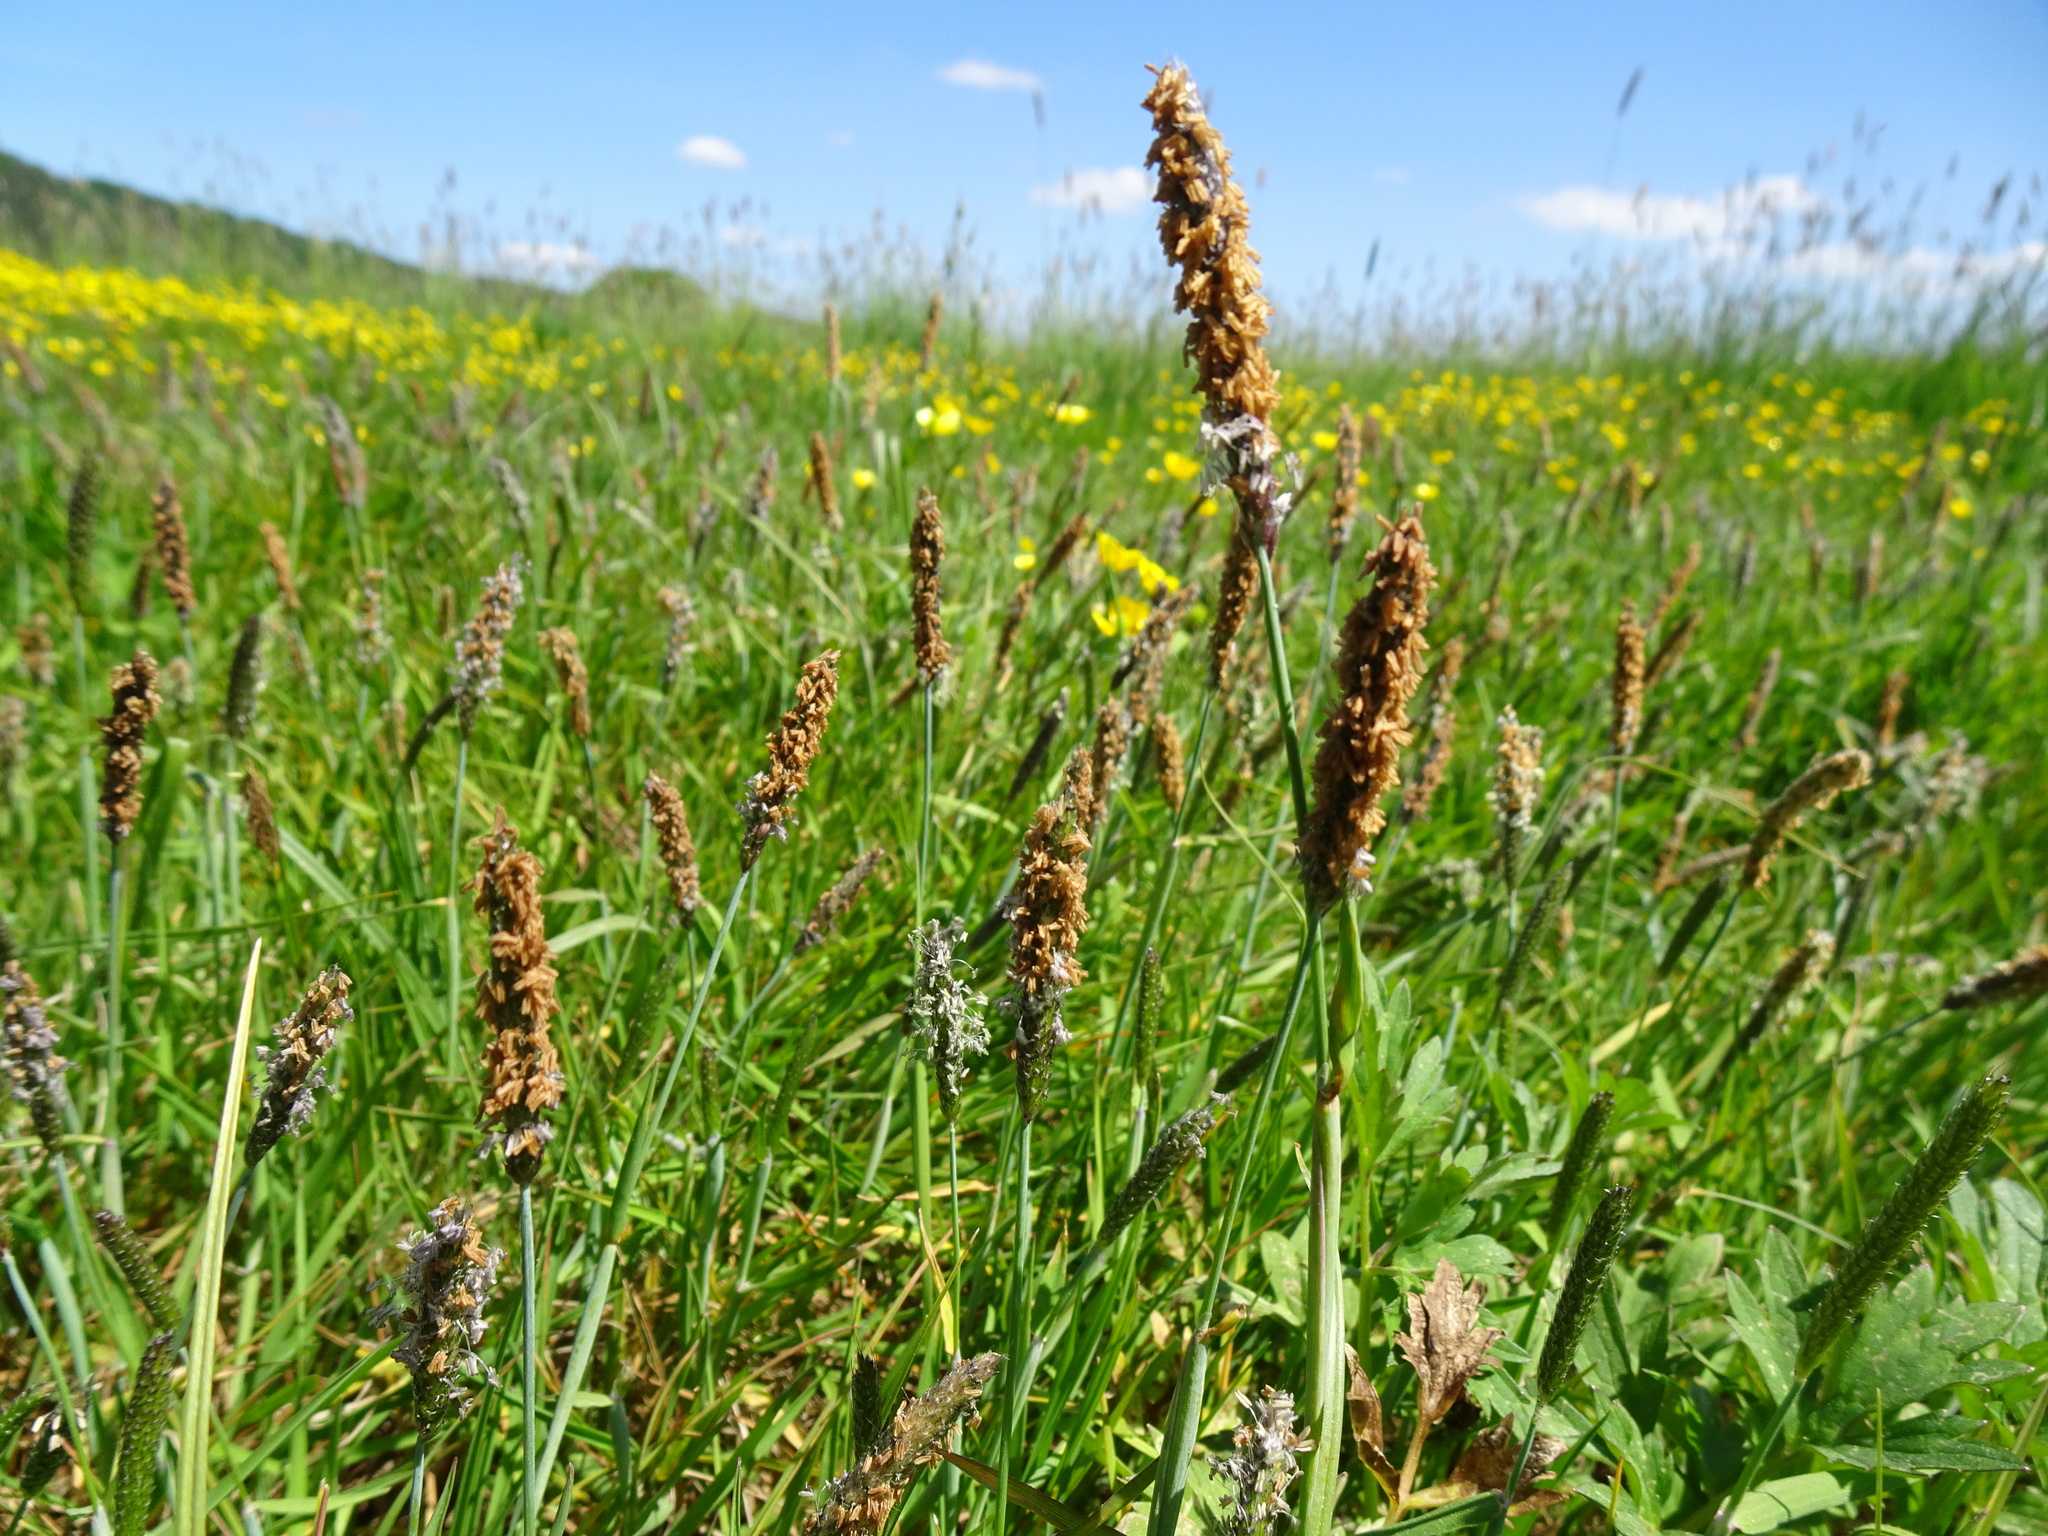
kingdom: Plantae
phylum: Tracheophyta
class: Liliopsida
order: Poales
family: Poaceae
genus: Alopecurus
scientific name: Alopecurus pratensis
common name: Meadow foxtail
